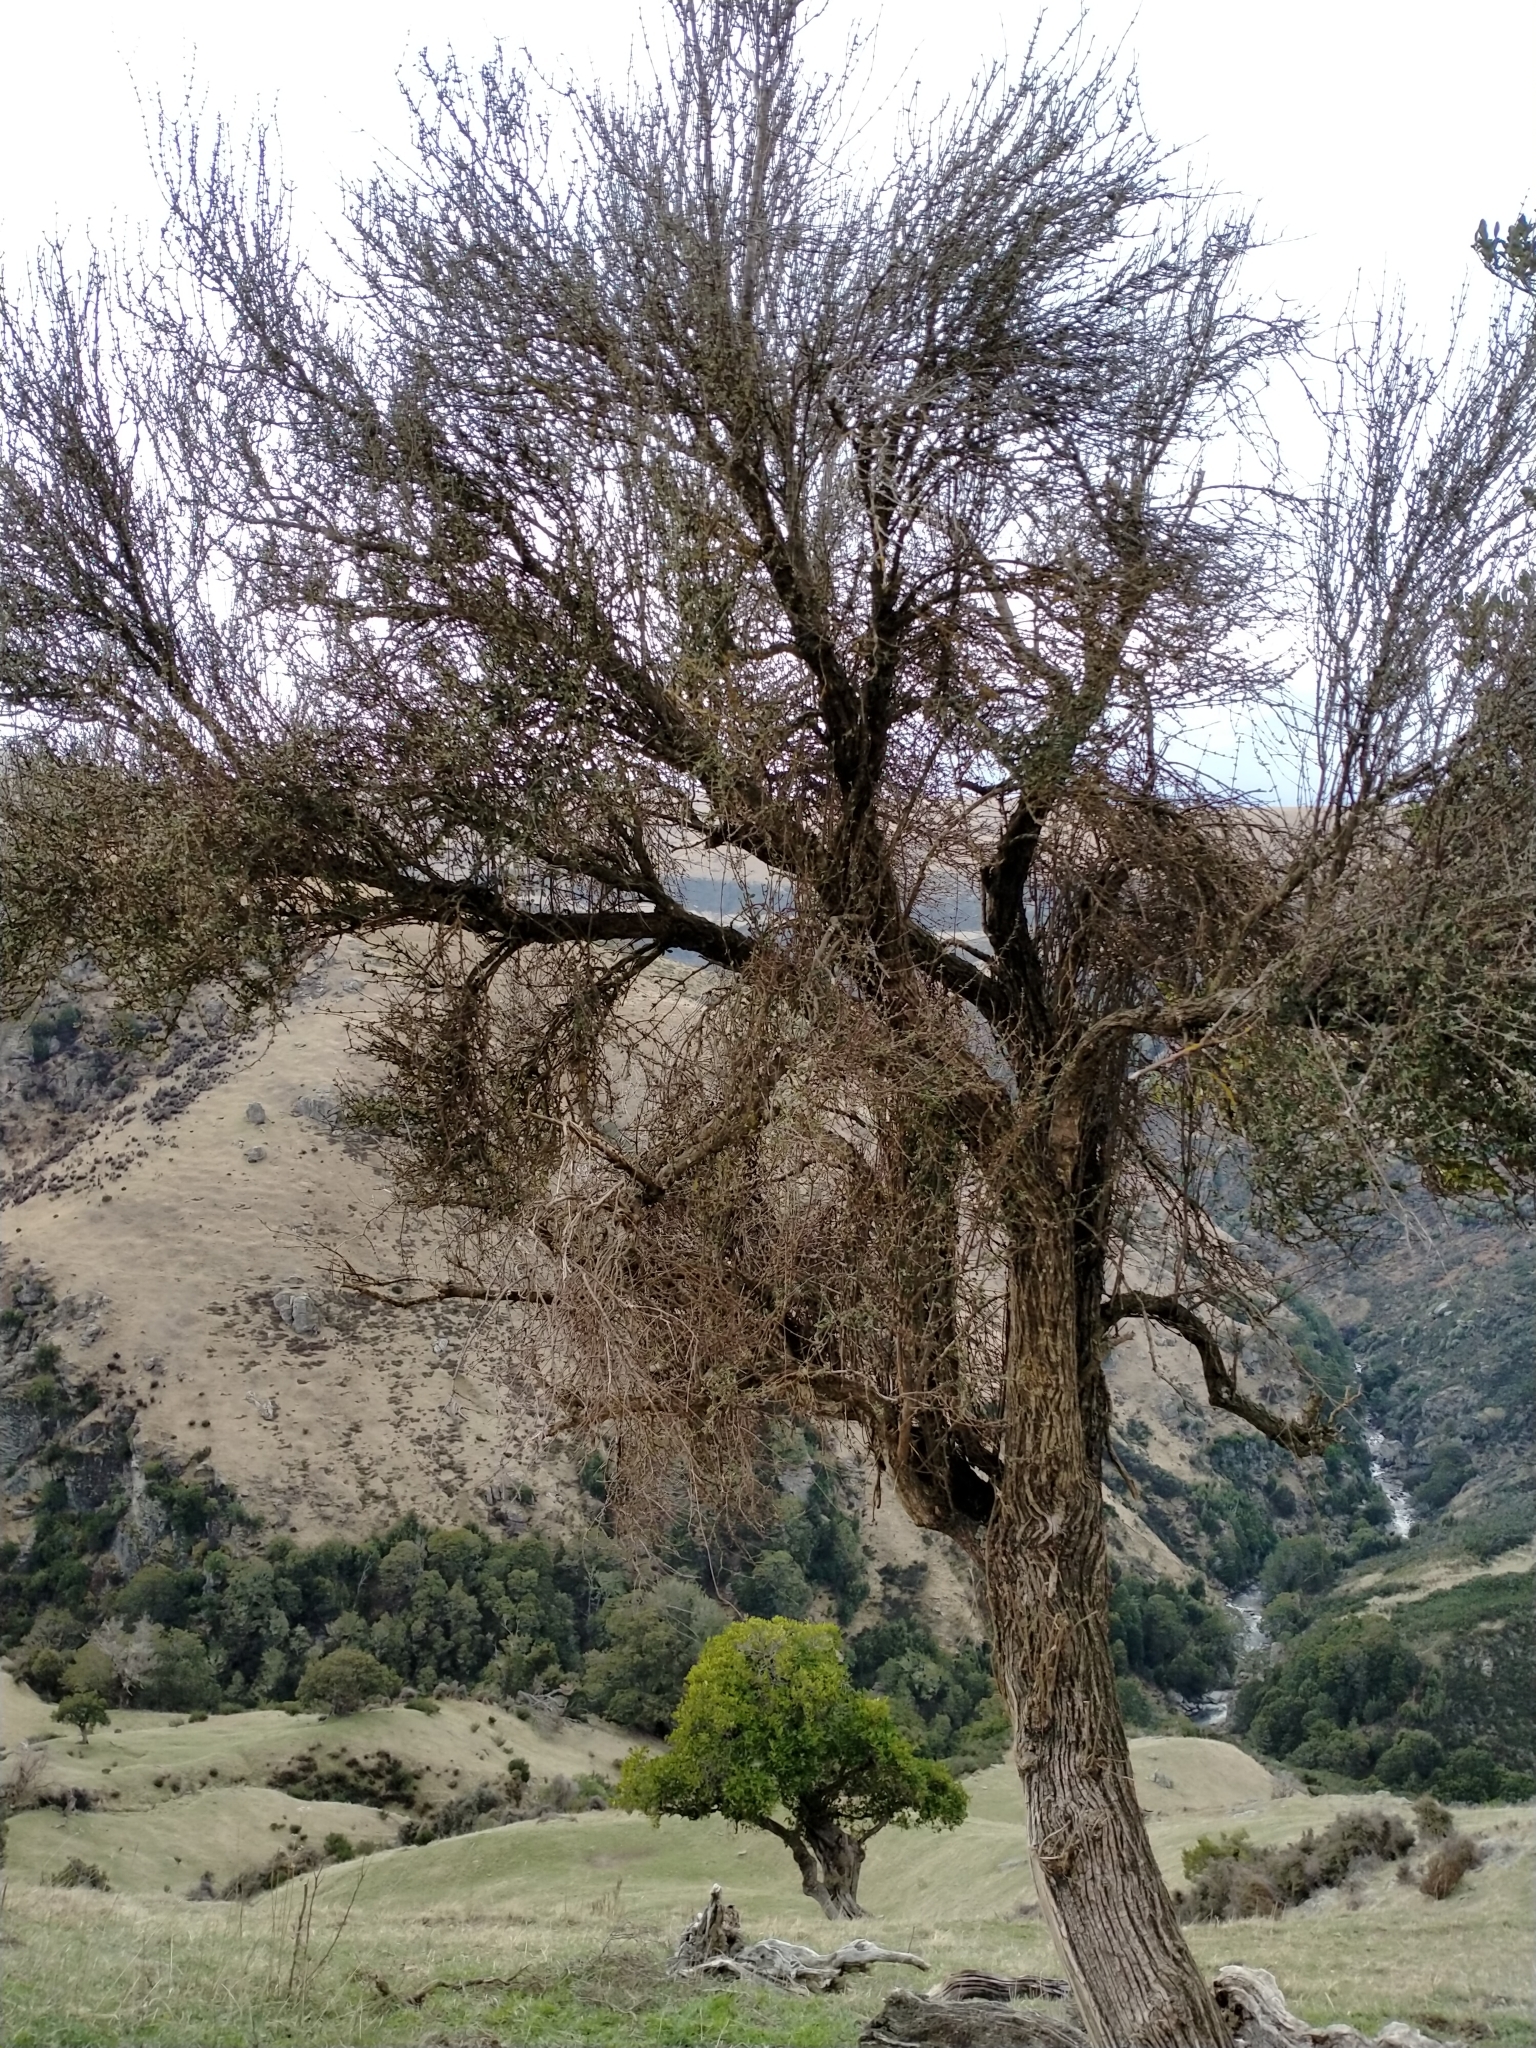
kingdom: Plantae
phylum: Tracheophyta
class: Magnoliopsida
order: Asterales
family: Asteraceae
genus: Olearia
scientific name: Olearia fimbriata
